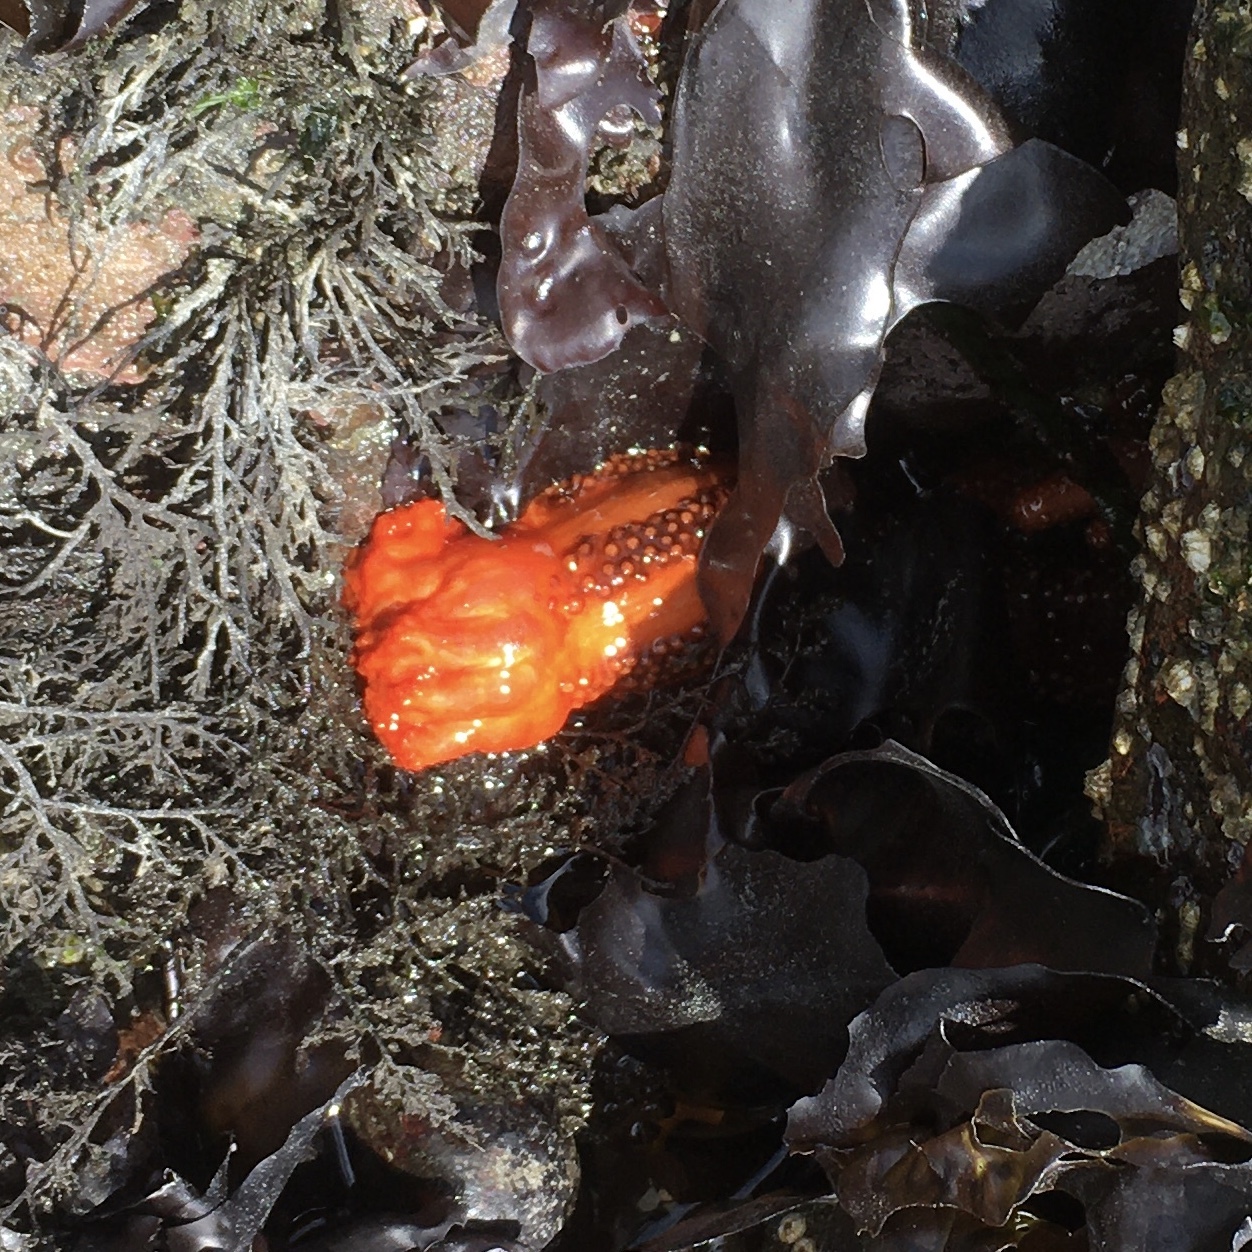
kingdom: Animalia
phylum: Echinodermata
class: Holothuroidea
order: Dendrochirotida
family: Cucumariidae
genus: Cucumaria
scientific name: Cucumaria miniata
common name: Orange sea cucumber
